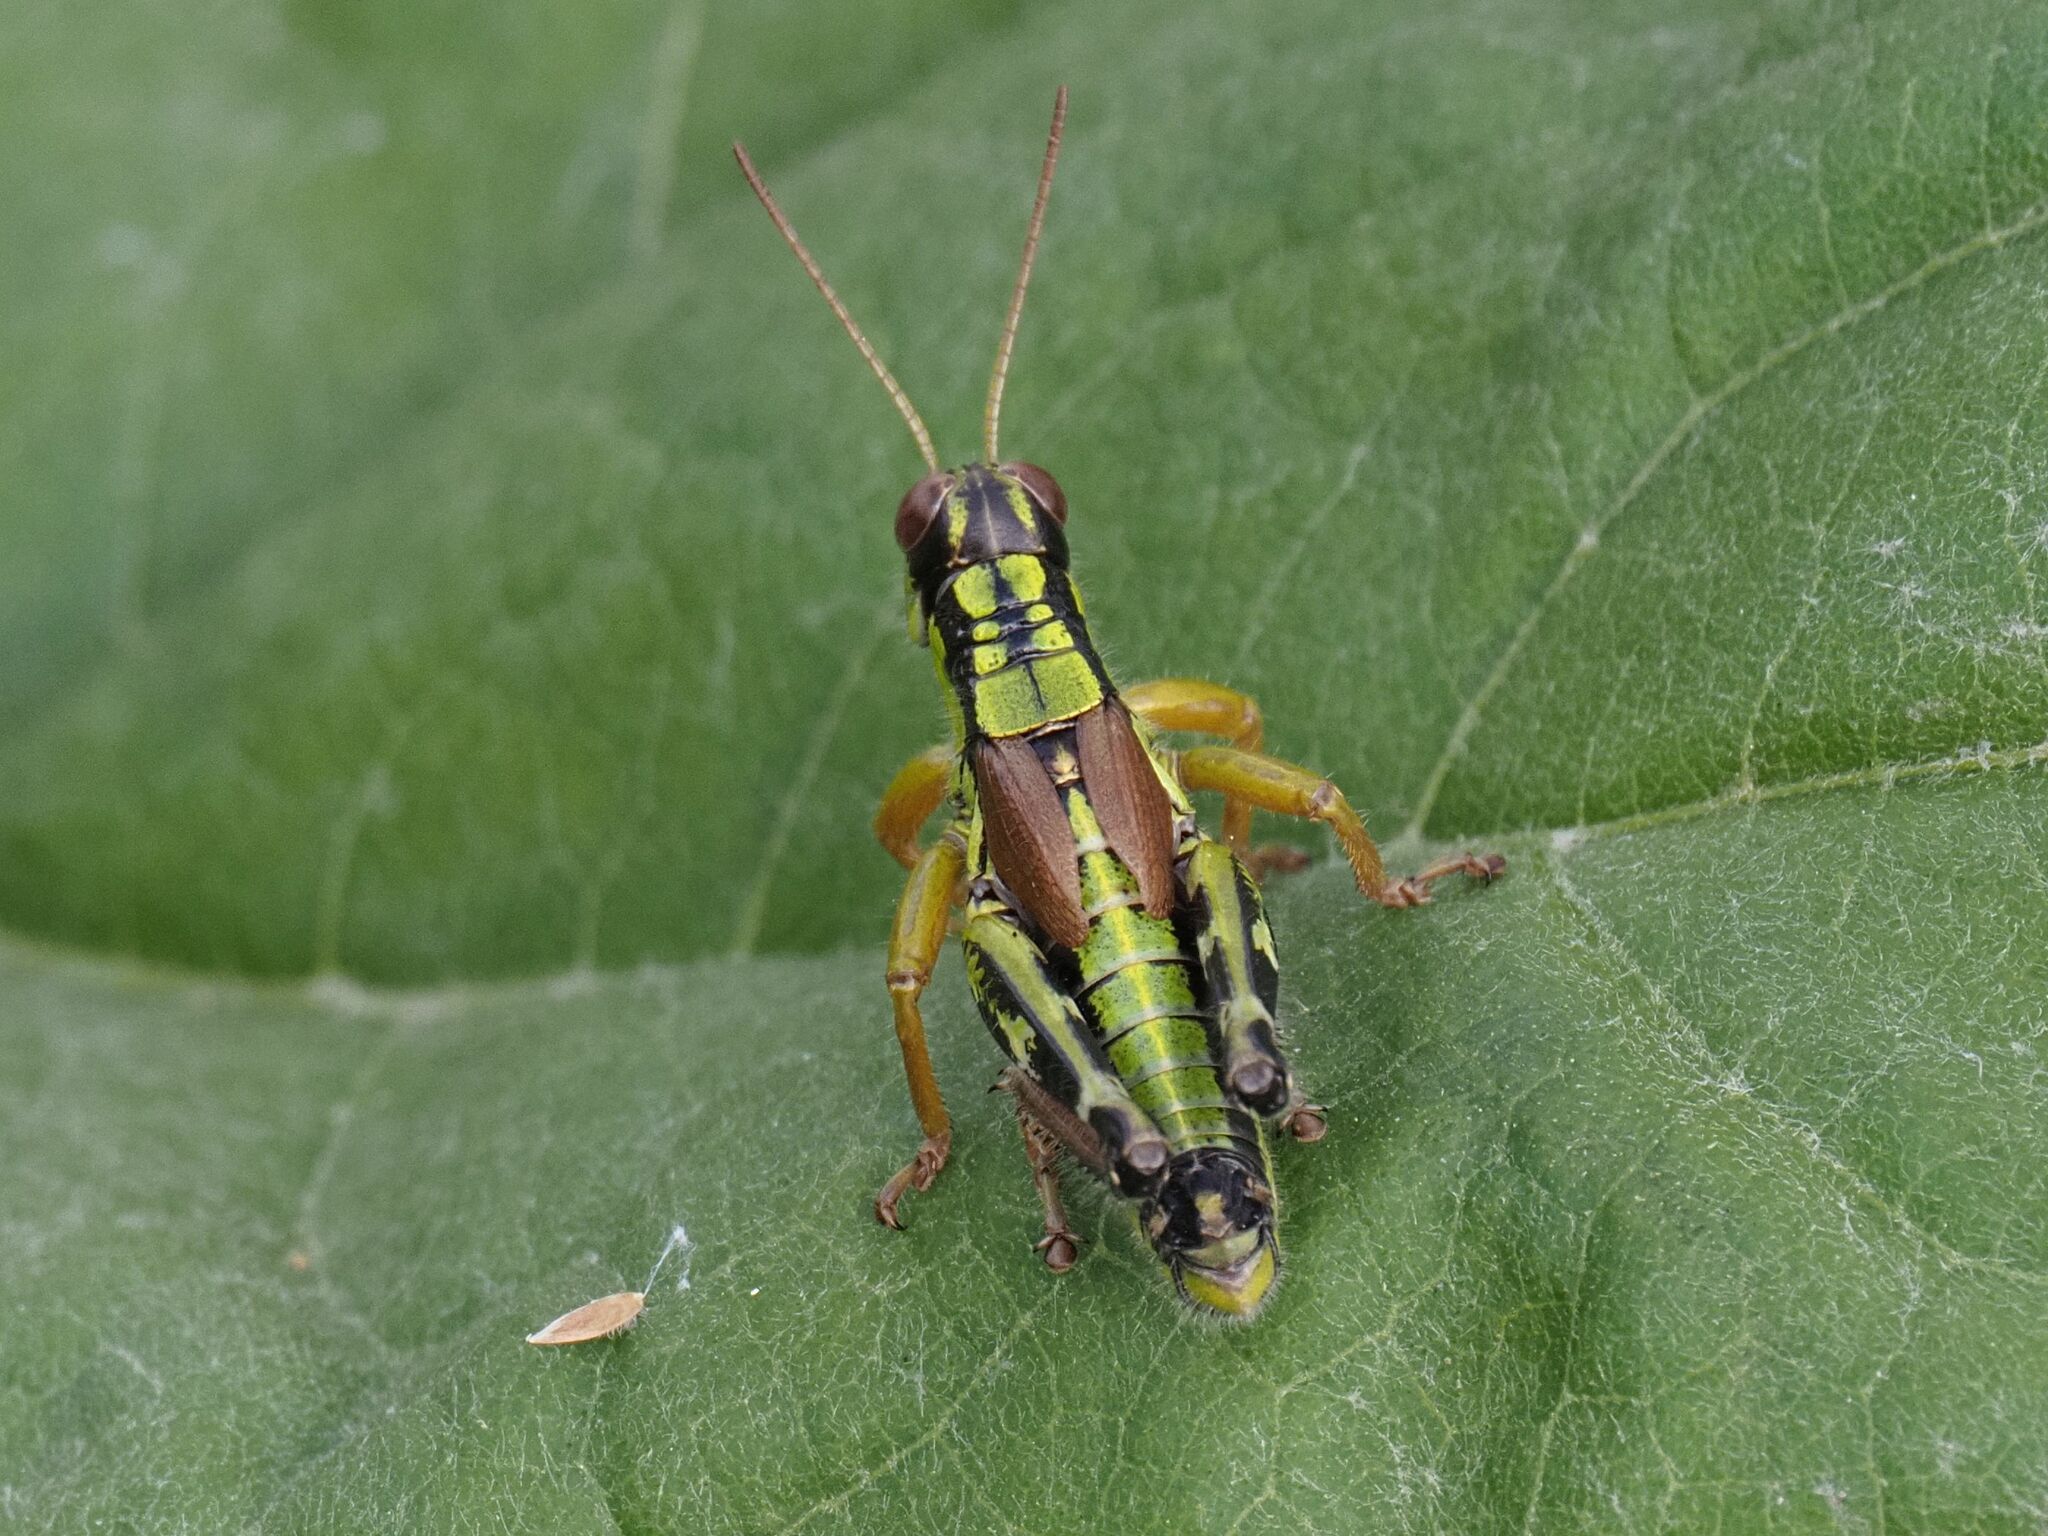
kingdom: Animalia
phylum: Arthropoda
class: Insecta
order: Orthoptera
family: Acrididae
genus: Miramella
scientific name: Miramella alpina
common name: Green mountain grasshopper
